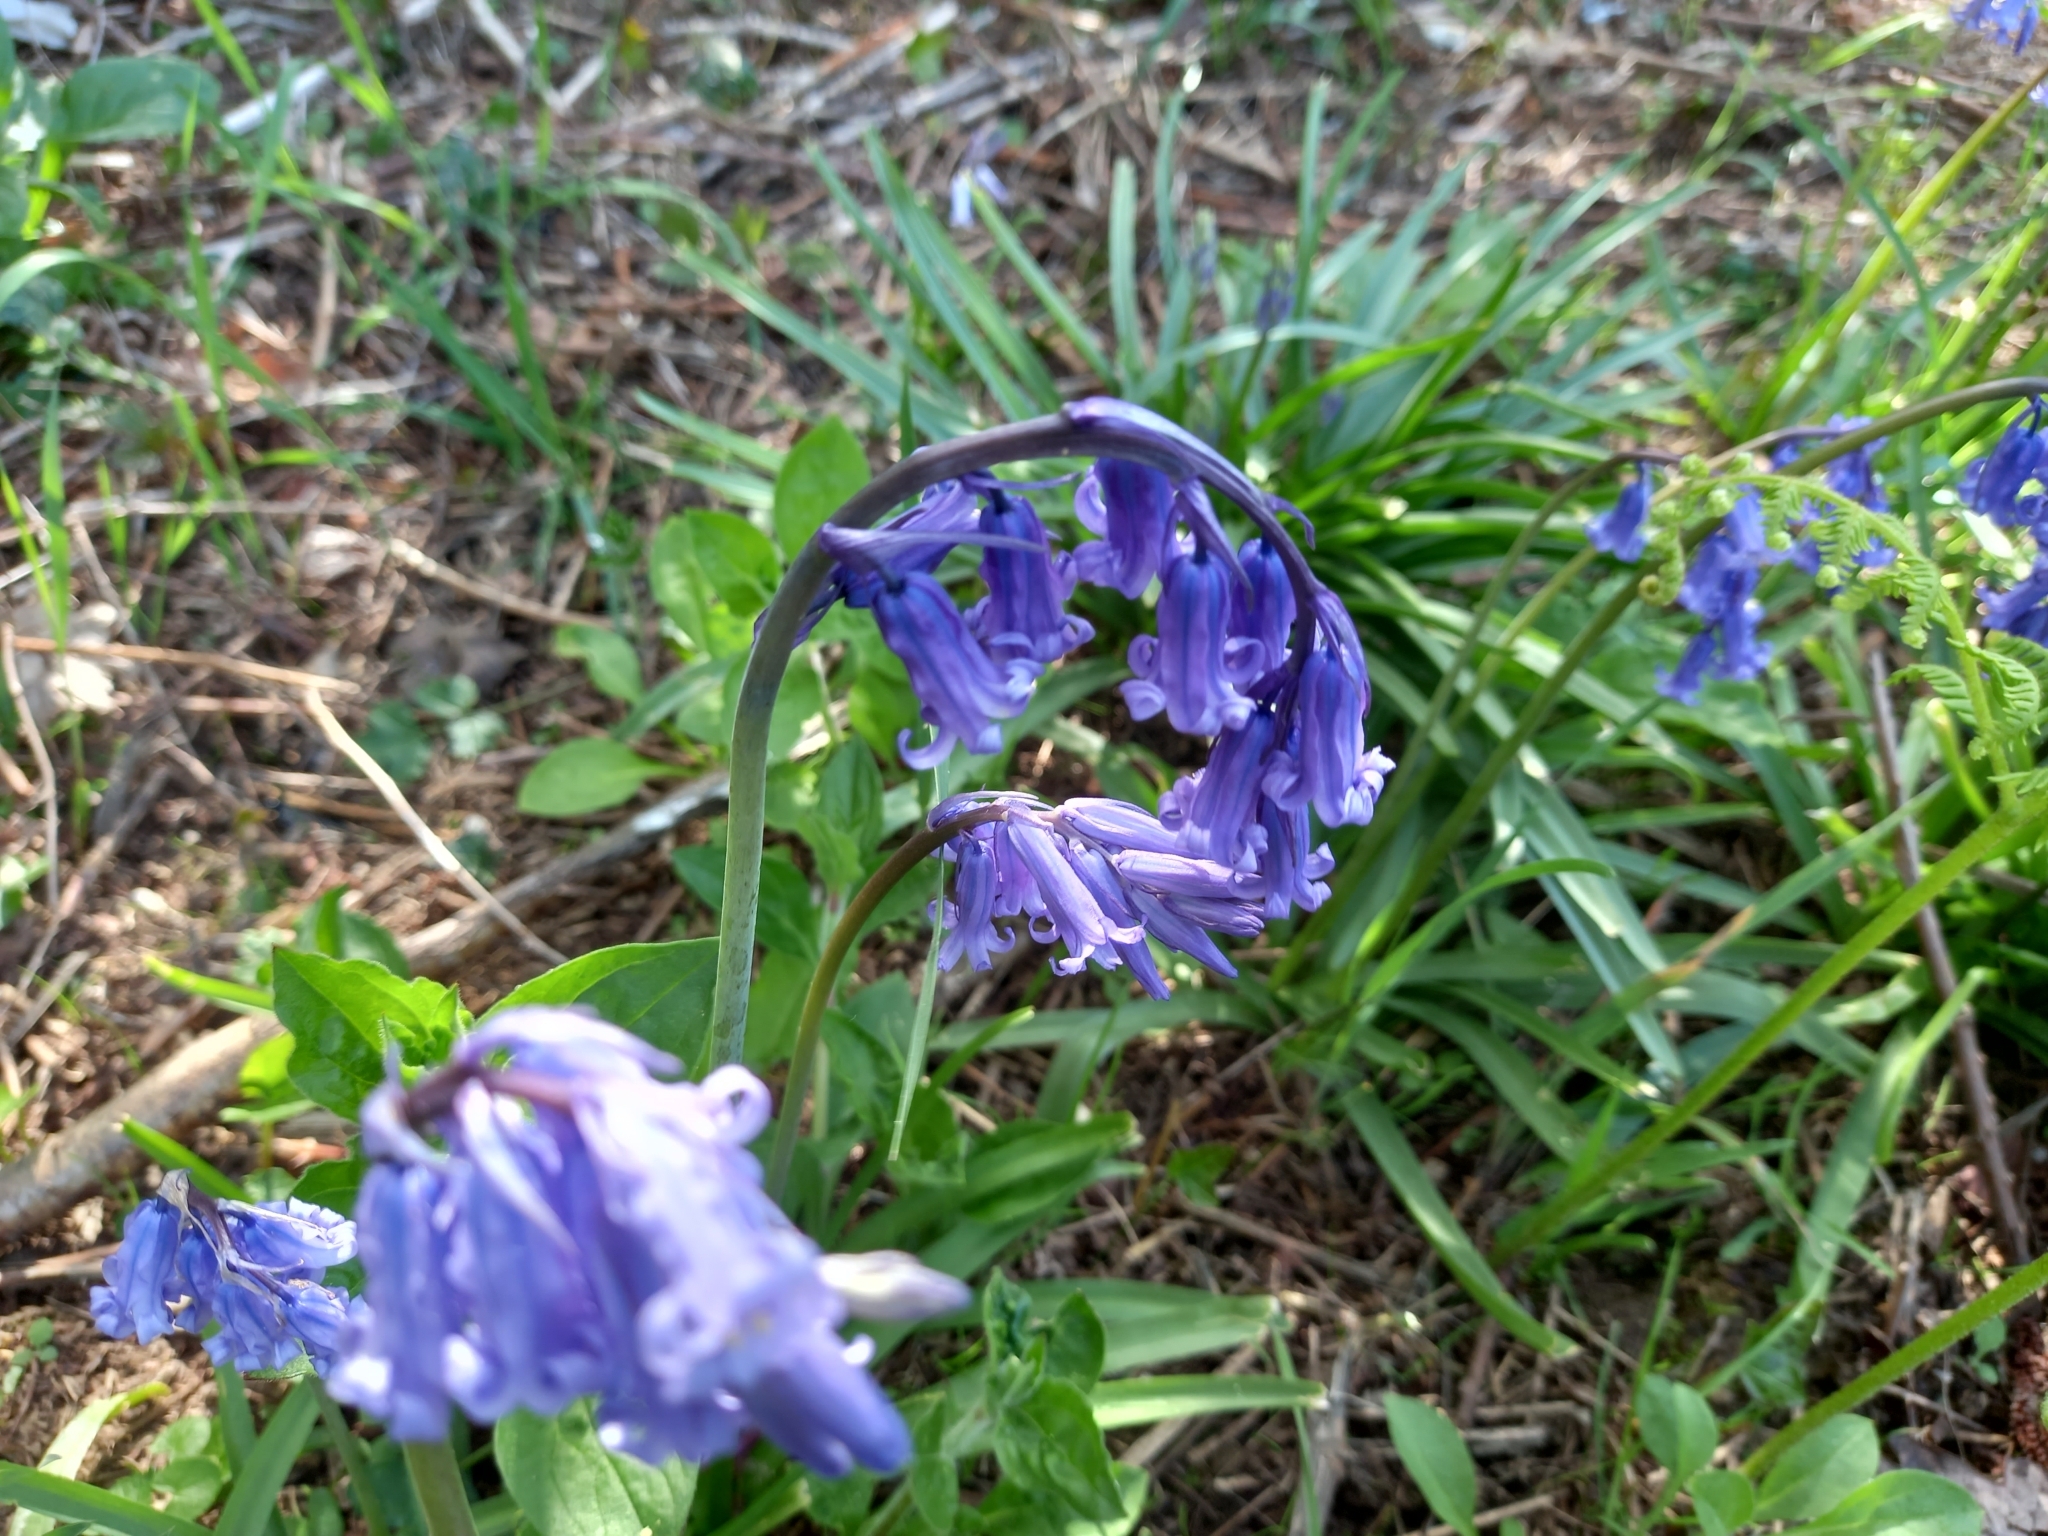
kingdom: Plantae
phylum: Tracheophyta
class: Liliopsida
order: Asparagales
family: Asparagaceae
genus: Hyacinthoides
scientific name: Hyacinthoides non-scripta
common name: Bluebell
